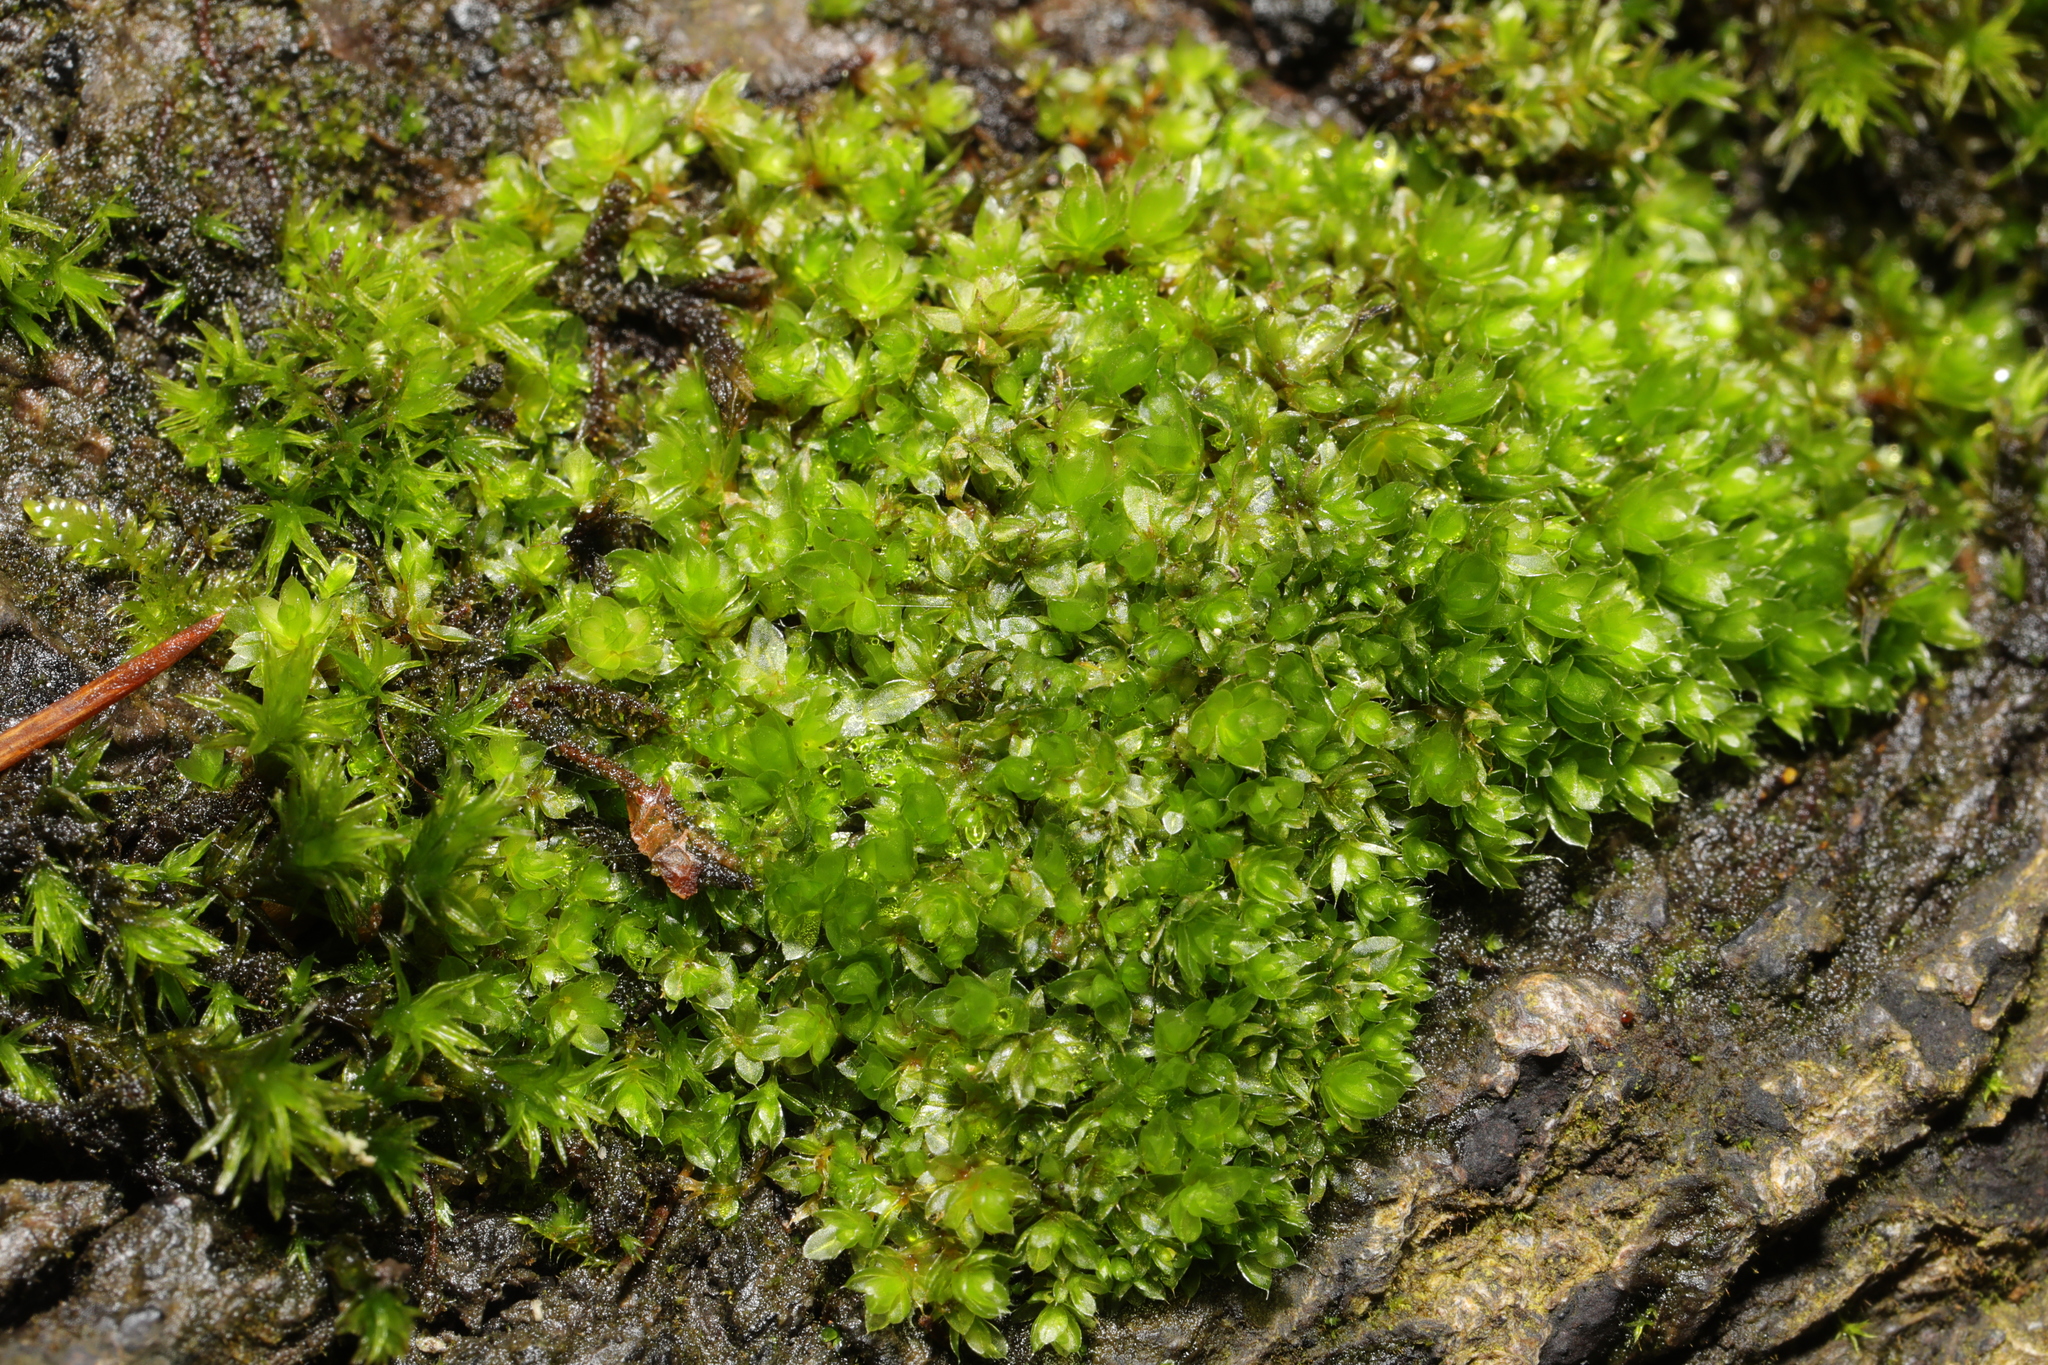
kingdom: Plantae
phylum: Bryophyta
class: Bryopsida
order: Bryales
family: Bryaceae
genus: Rosulabryum
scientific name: Rosulabryum capillare
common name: Capillary thread-moss
